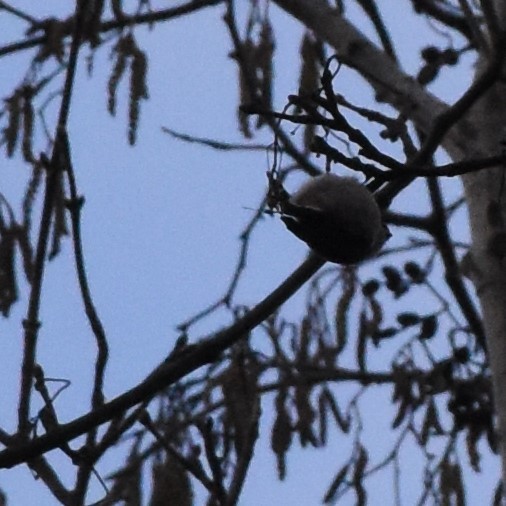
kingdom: Animalia
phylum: Chordata
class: Aves
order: Passeriformes
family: Aegithalidae
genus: Aegithalos
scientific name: Aegithalos caudatus
